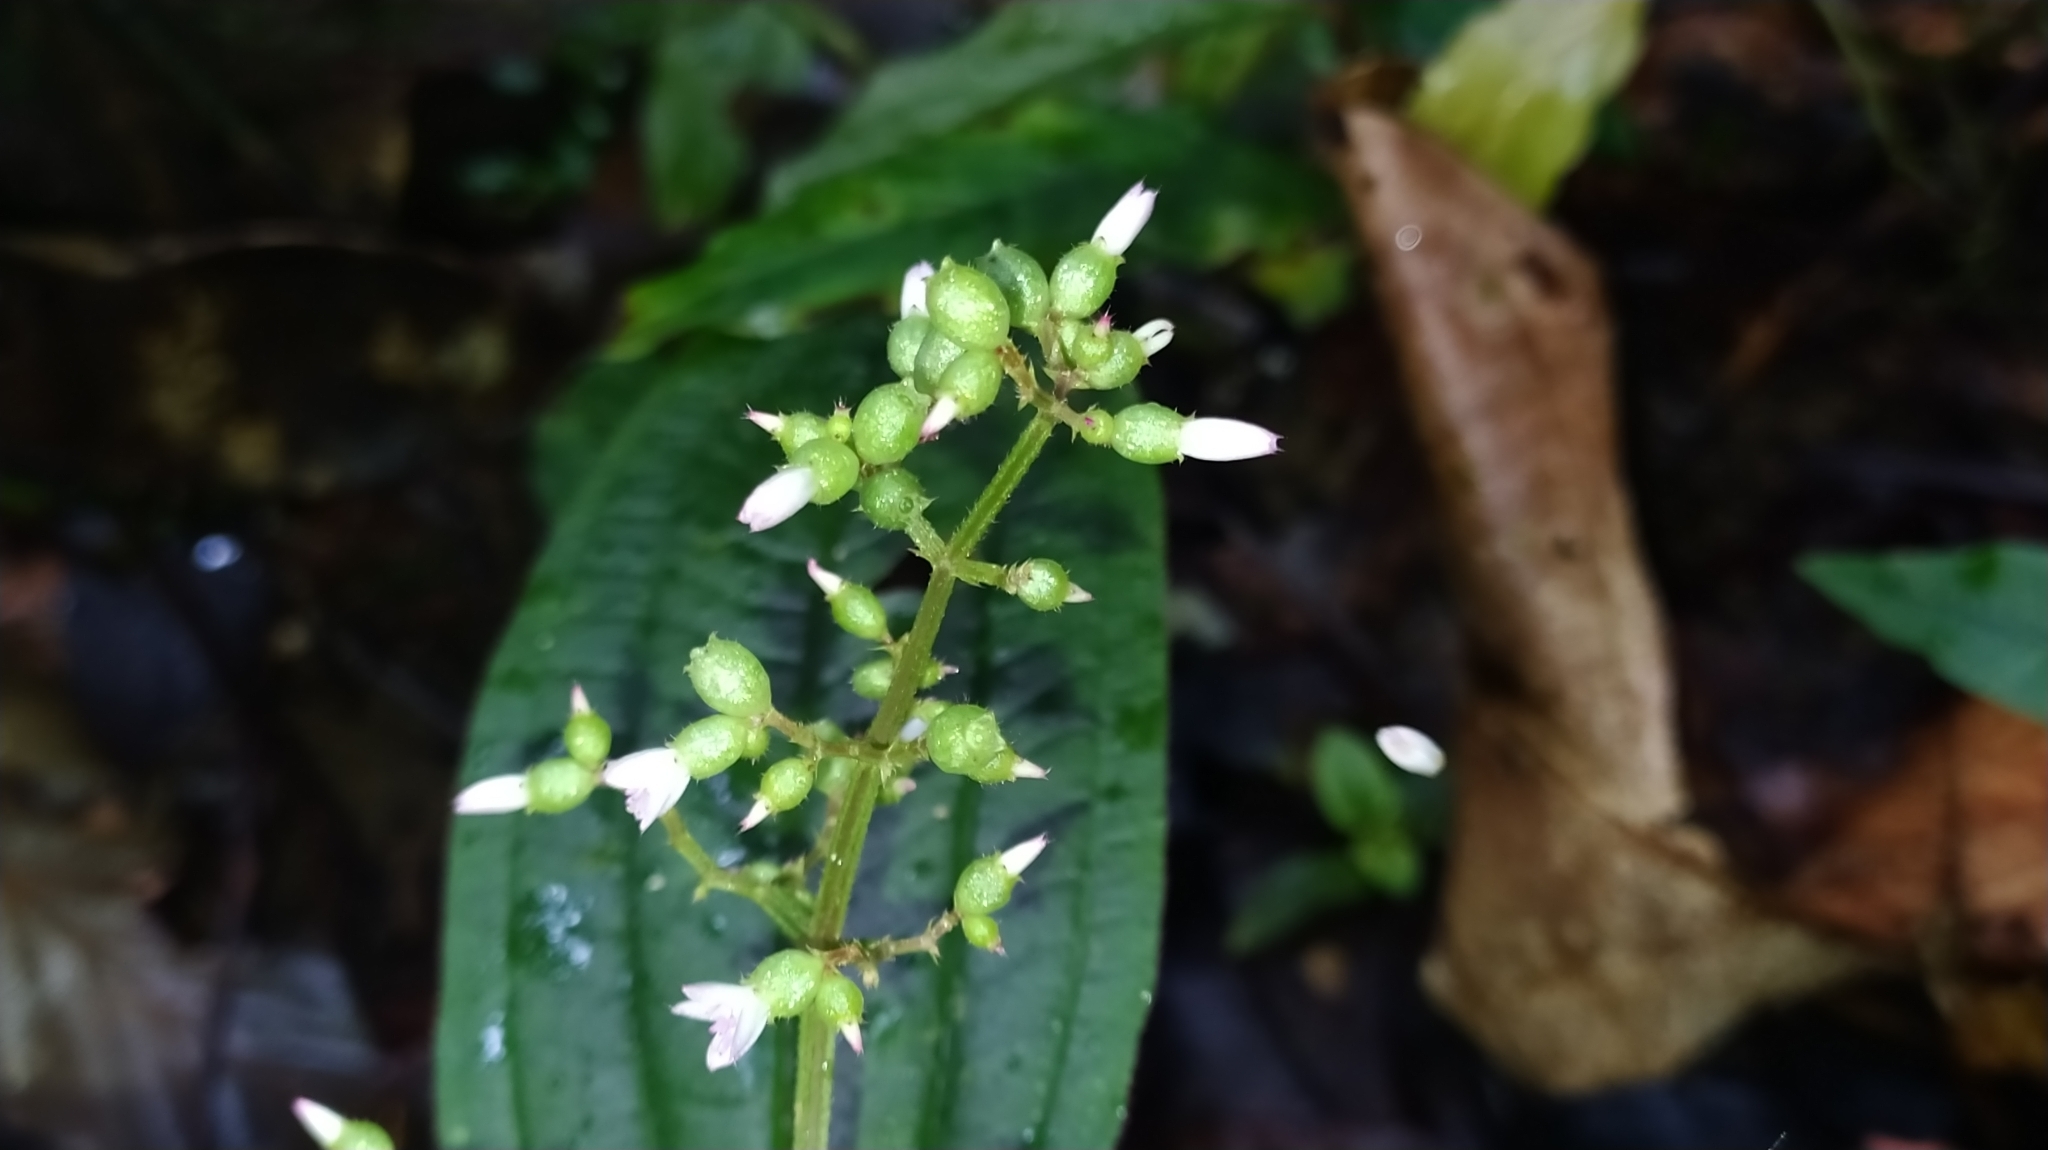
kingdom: Plantae
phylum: Tracheophyta
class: Magnoliopsida
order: Myrtales
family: Melastomataceae
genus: Aciotis
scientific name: Aciotis purpurascens
